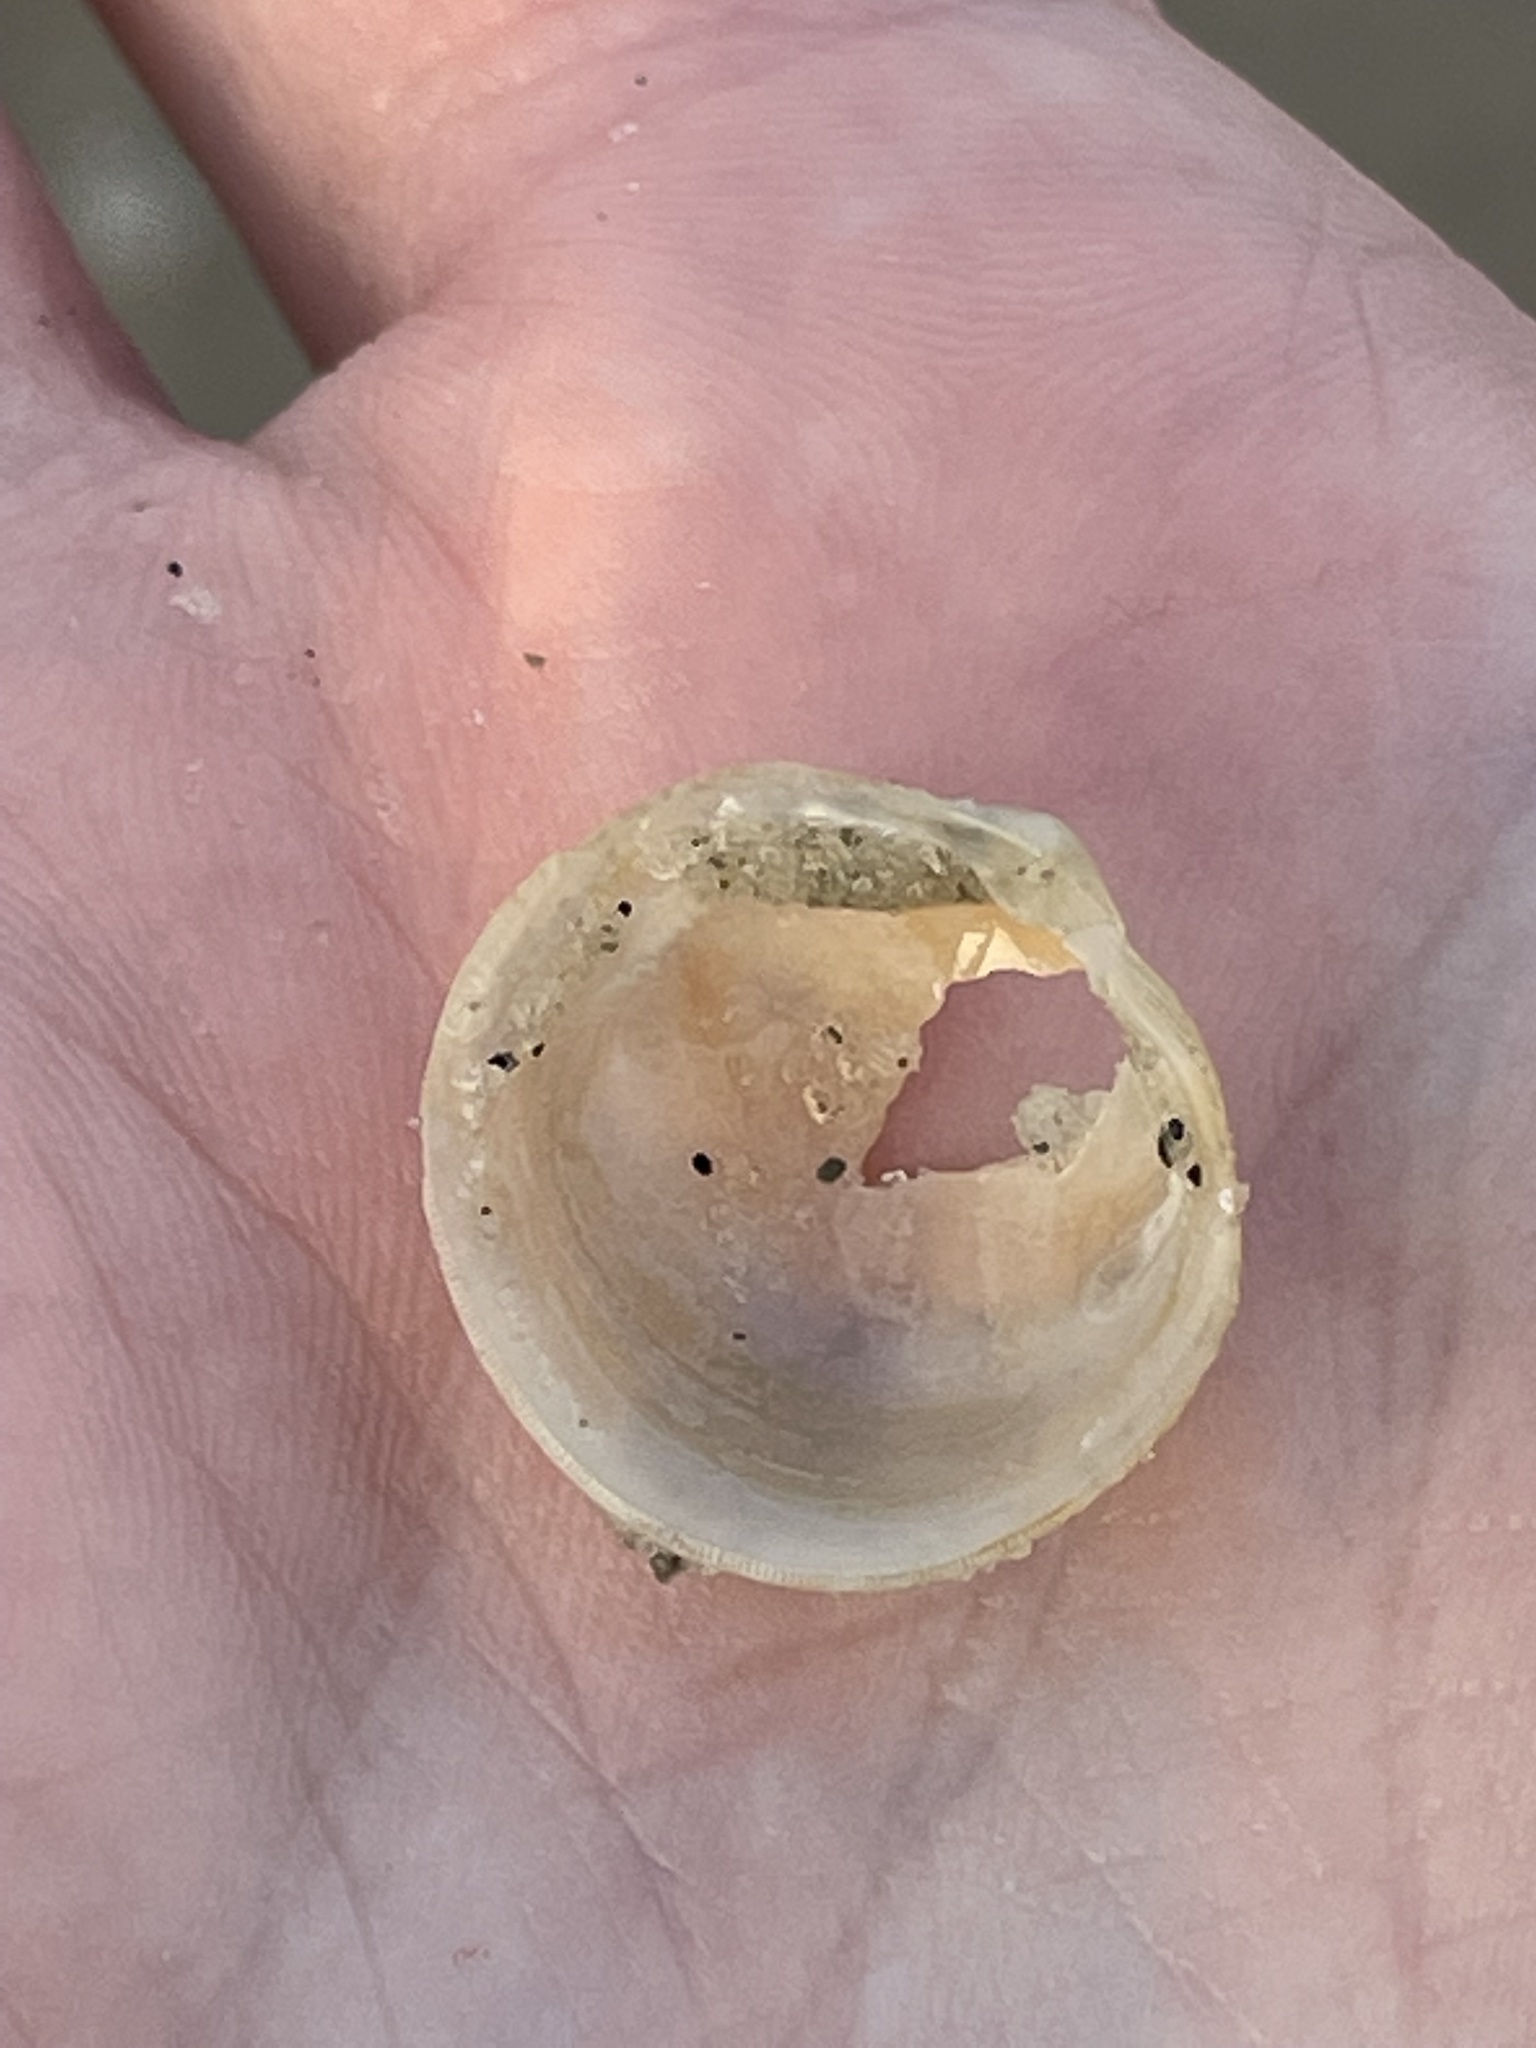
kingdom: Animalia
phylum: Mollusca
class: Bivalvia
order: Lucinida
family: Lucinidae
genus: Divalinga
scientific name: Divalinga quadrisulcata
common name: Cross-hatched lucine
